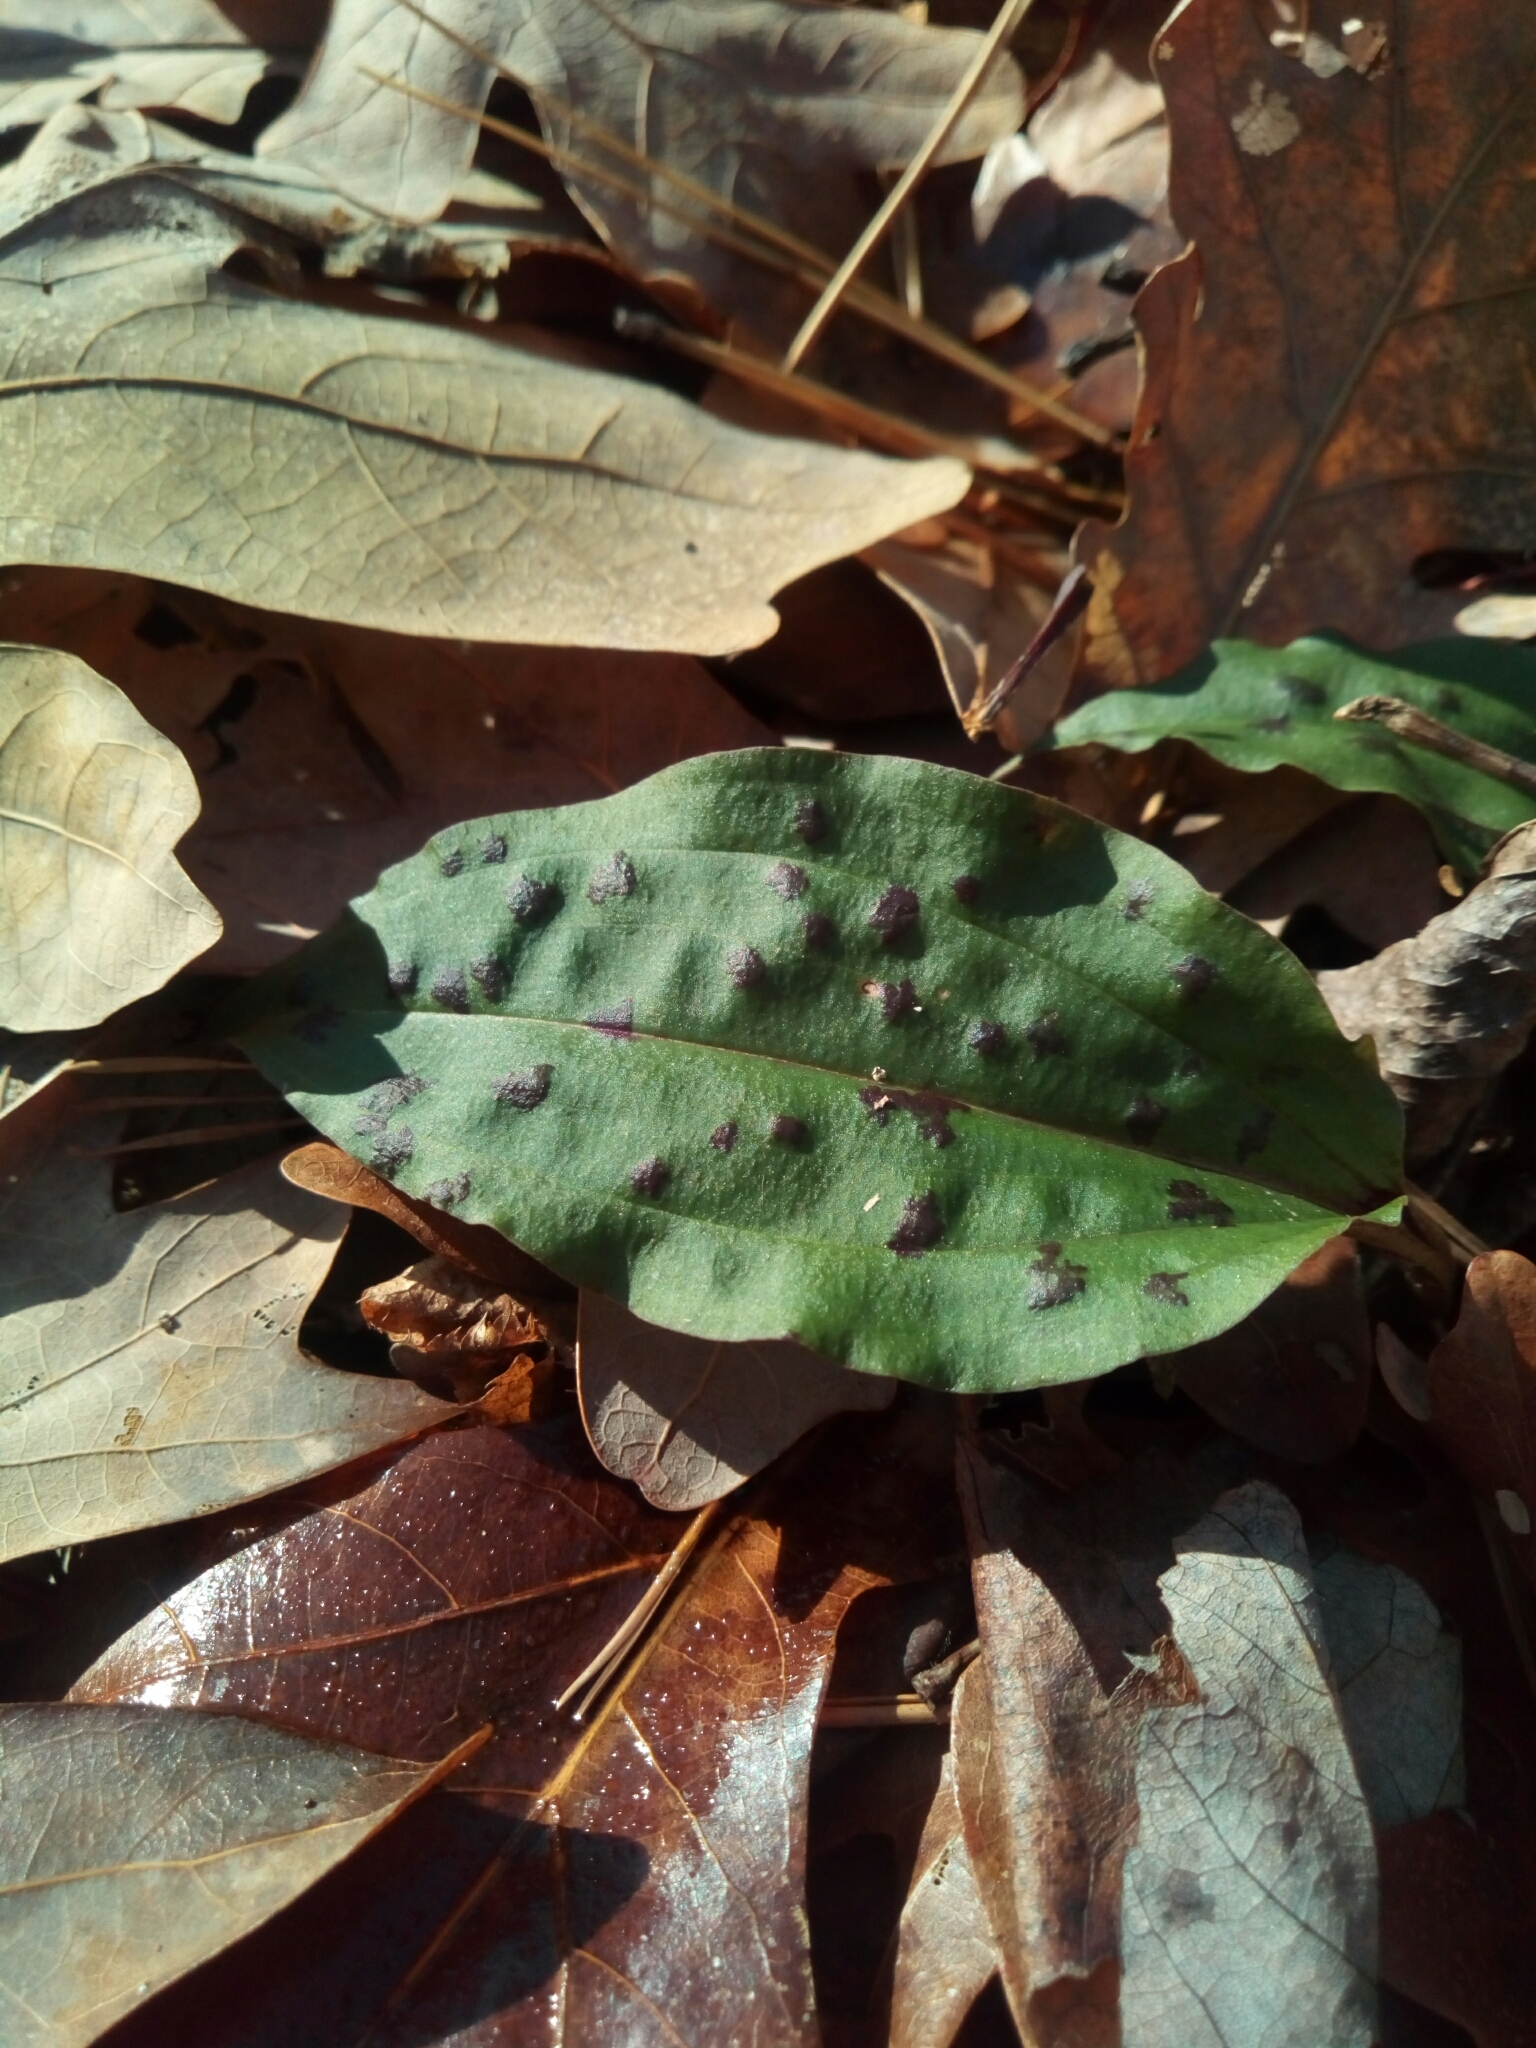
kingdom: Plantae
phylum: Tracheophyta
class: Liliopsida
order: Asparagales
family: Orchidaceae
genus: Tipularia
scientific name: Tipularia discolor
